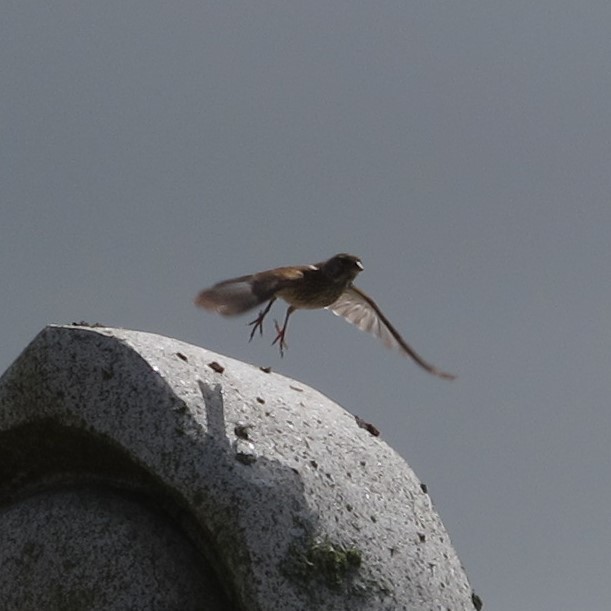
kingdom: Animalia
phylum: Chordata
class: Aves
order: Passeriformes
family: Fringillidae
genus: Linaria
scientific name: Linaria cannabina
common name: Common linnet
